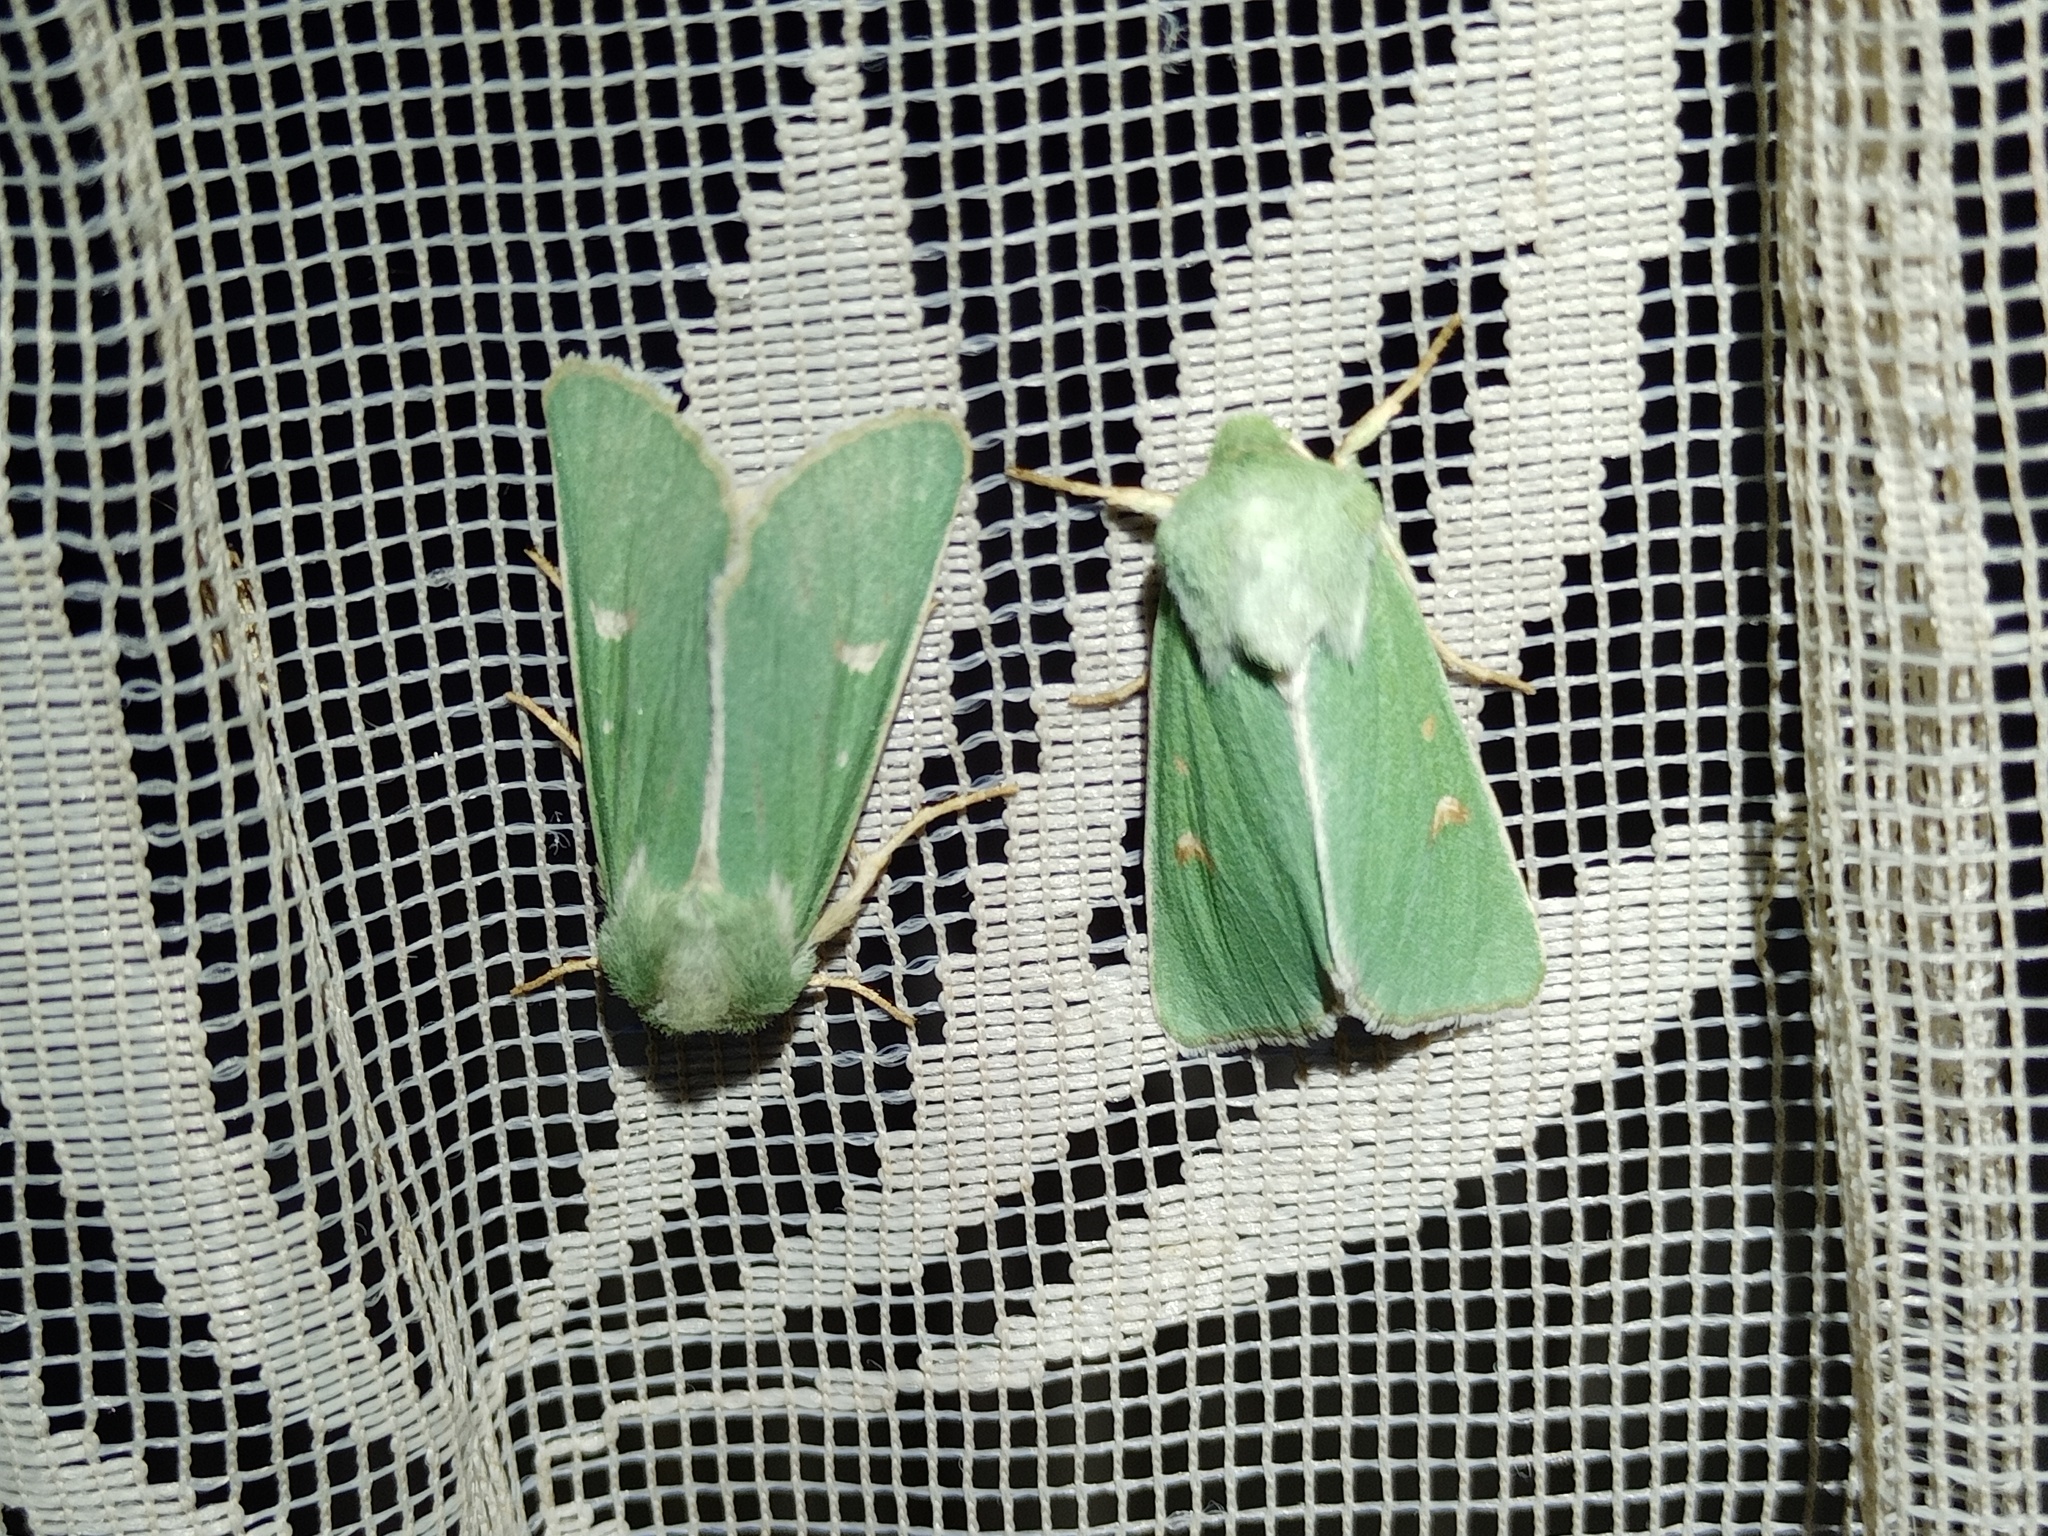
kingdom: Animalia
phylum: Arthropoda
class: Insecta
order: Lepidoptera
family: Noctuidae
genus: Calamia
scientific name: Calamia tridens
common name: Burren green
